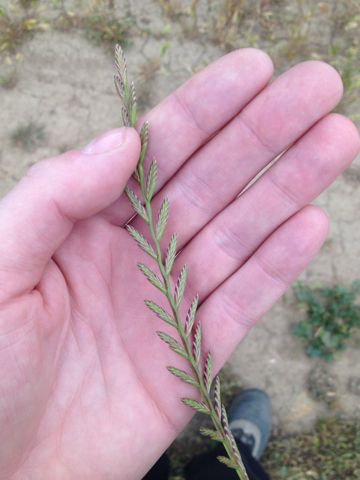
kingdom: Plantae
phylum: Tracheophyta
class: Liliopsida
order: Poales
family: Poaceae
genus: Lolium
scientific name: Lolium perenne
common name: Perennial ryegrass
